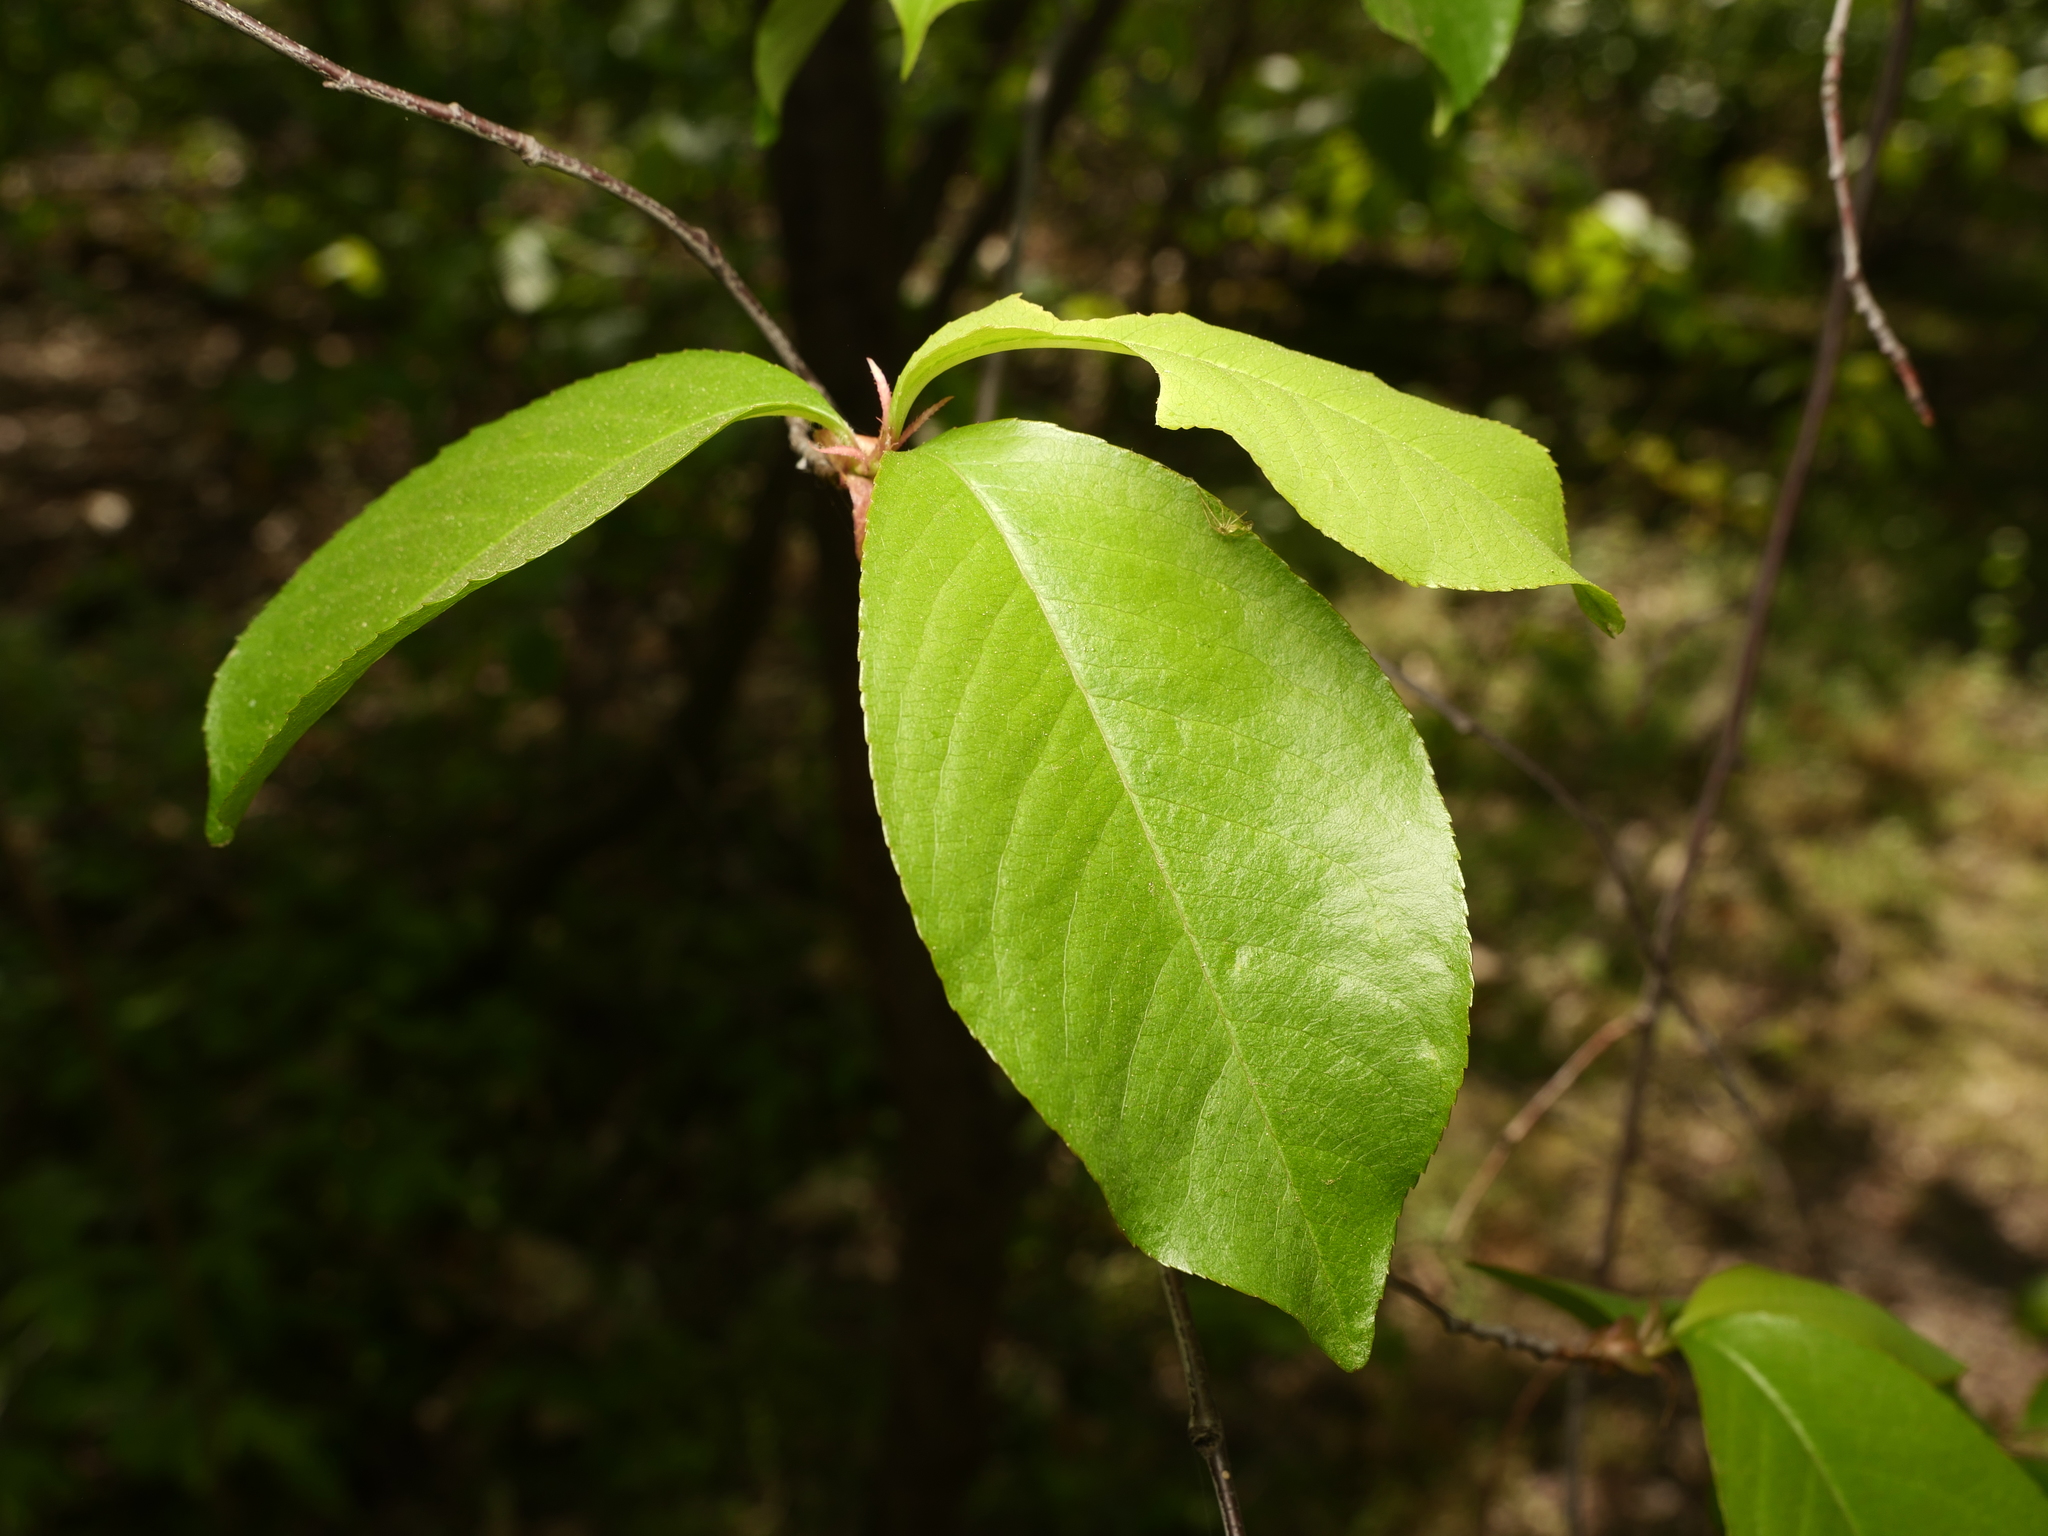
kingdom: Plantae
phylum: Tracheophyta
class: Magnoliopsida
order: Rosales
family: Rosaceae
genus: Prunus
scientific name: Prunus serotina
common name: Black cherry
